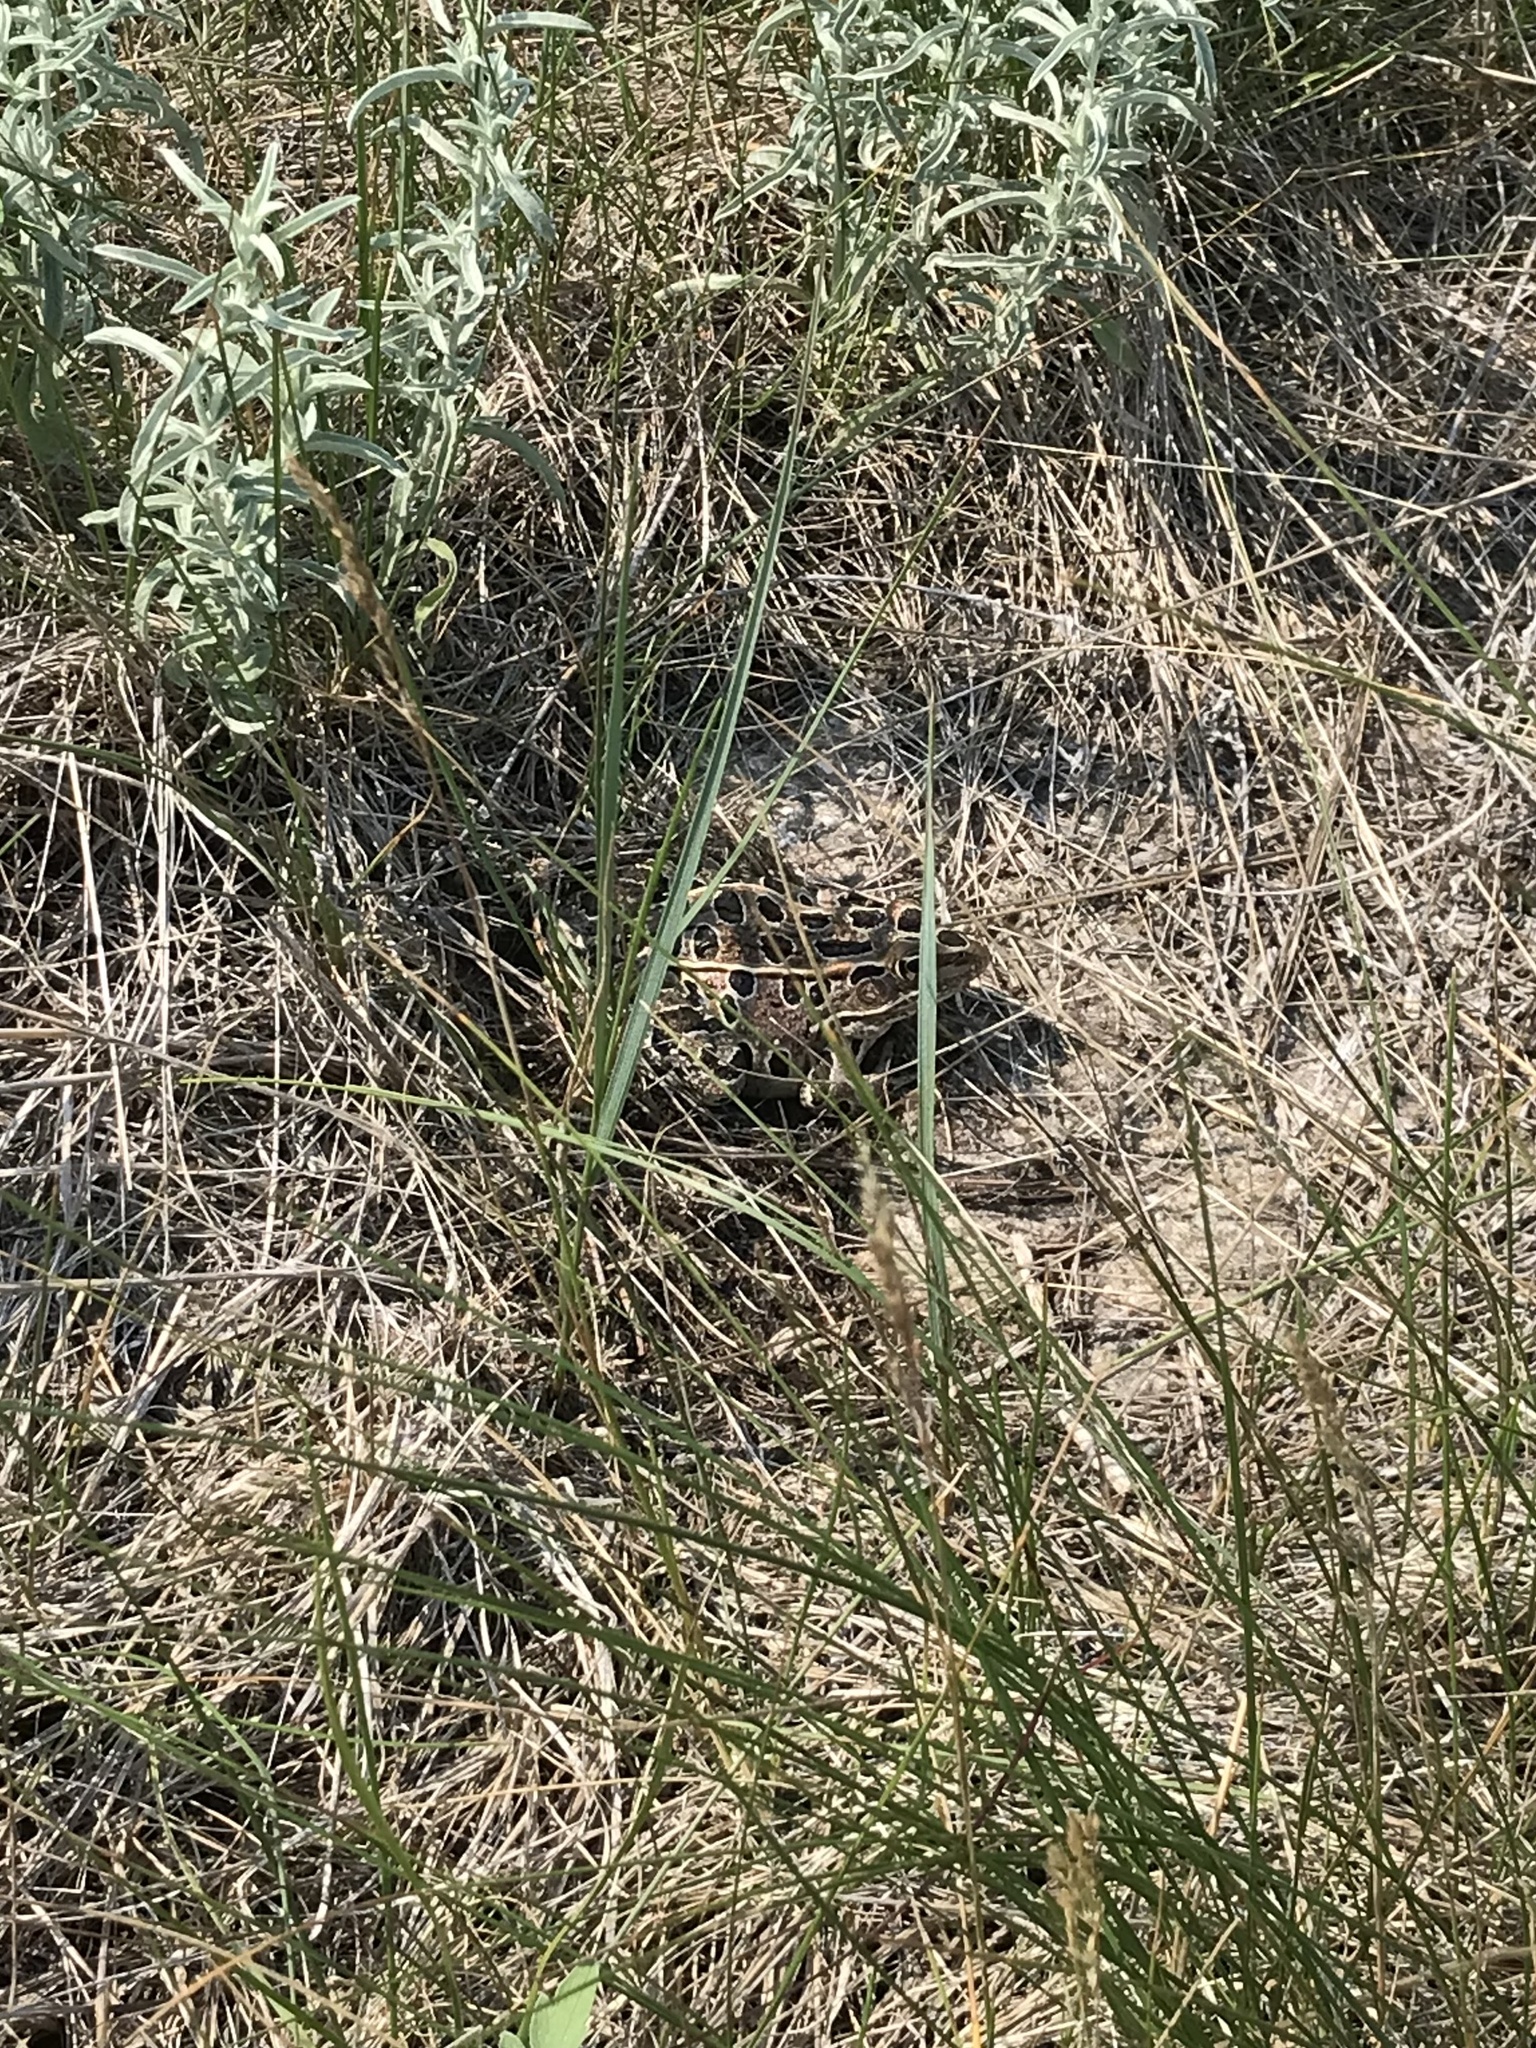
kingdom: Animalia
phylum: Chordata
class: Amphibia
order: Anura
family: Ranidae
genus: Lithobates
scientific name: Lithobates pipiens
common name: Northern leopard frog
